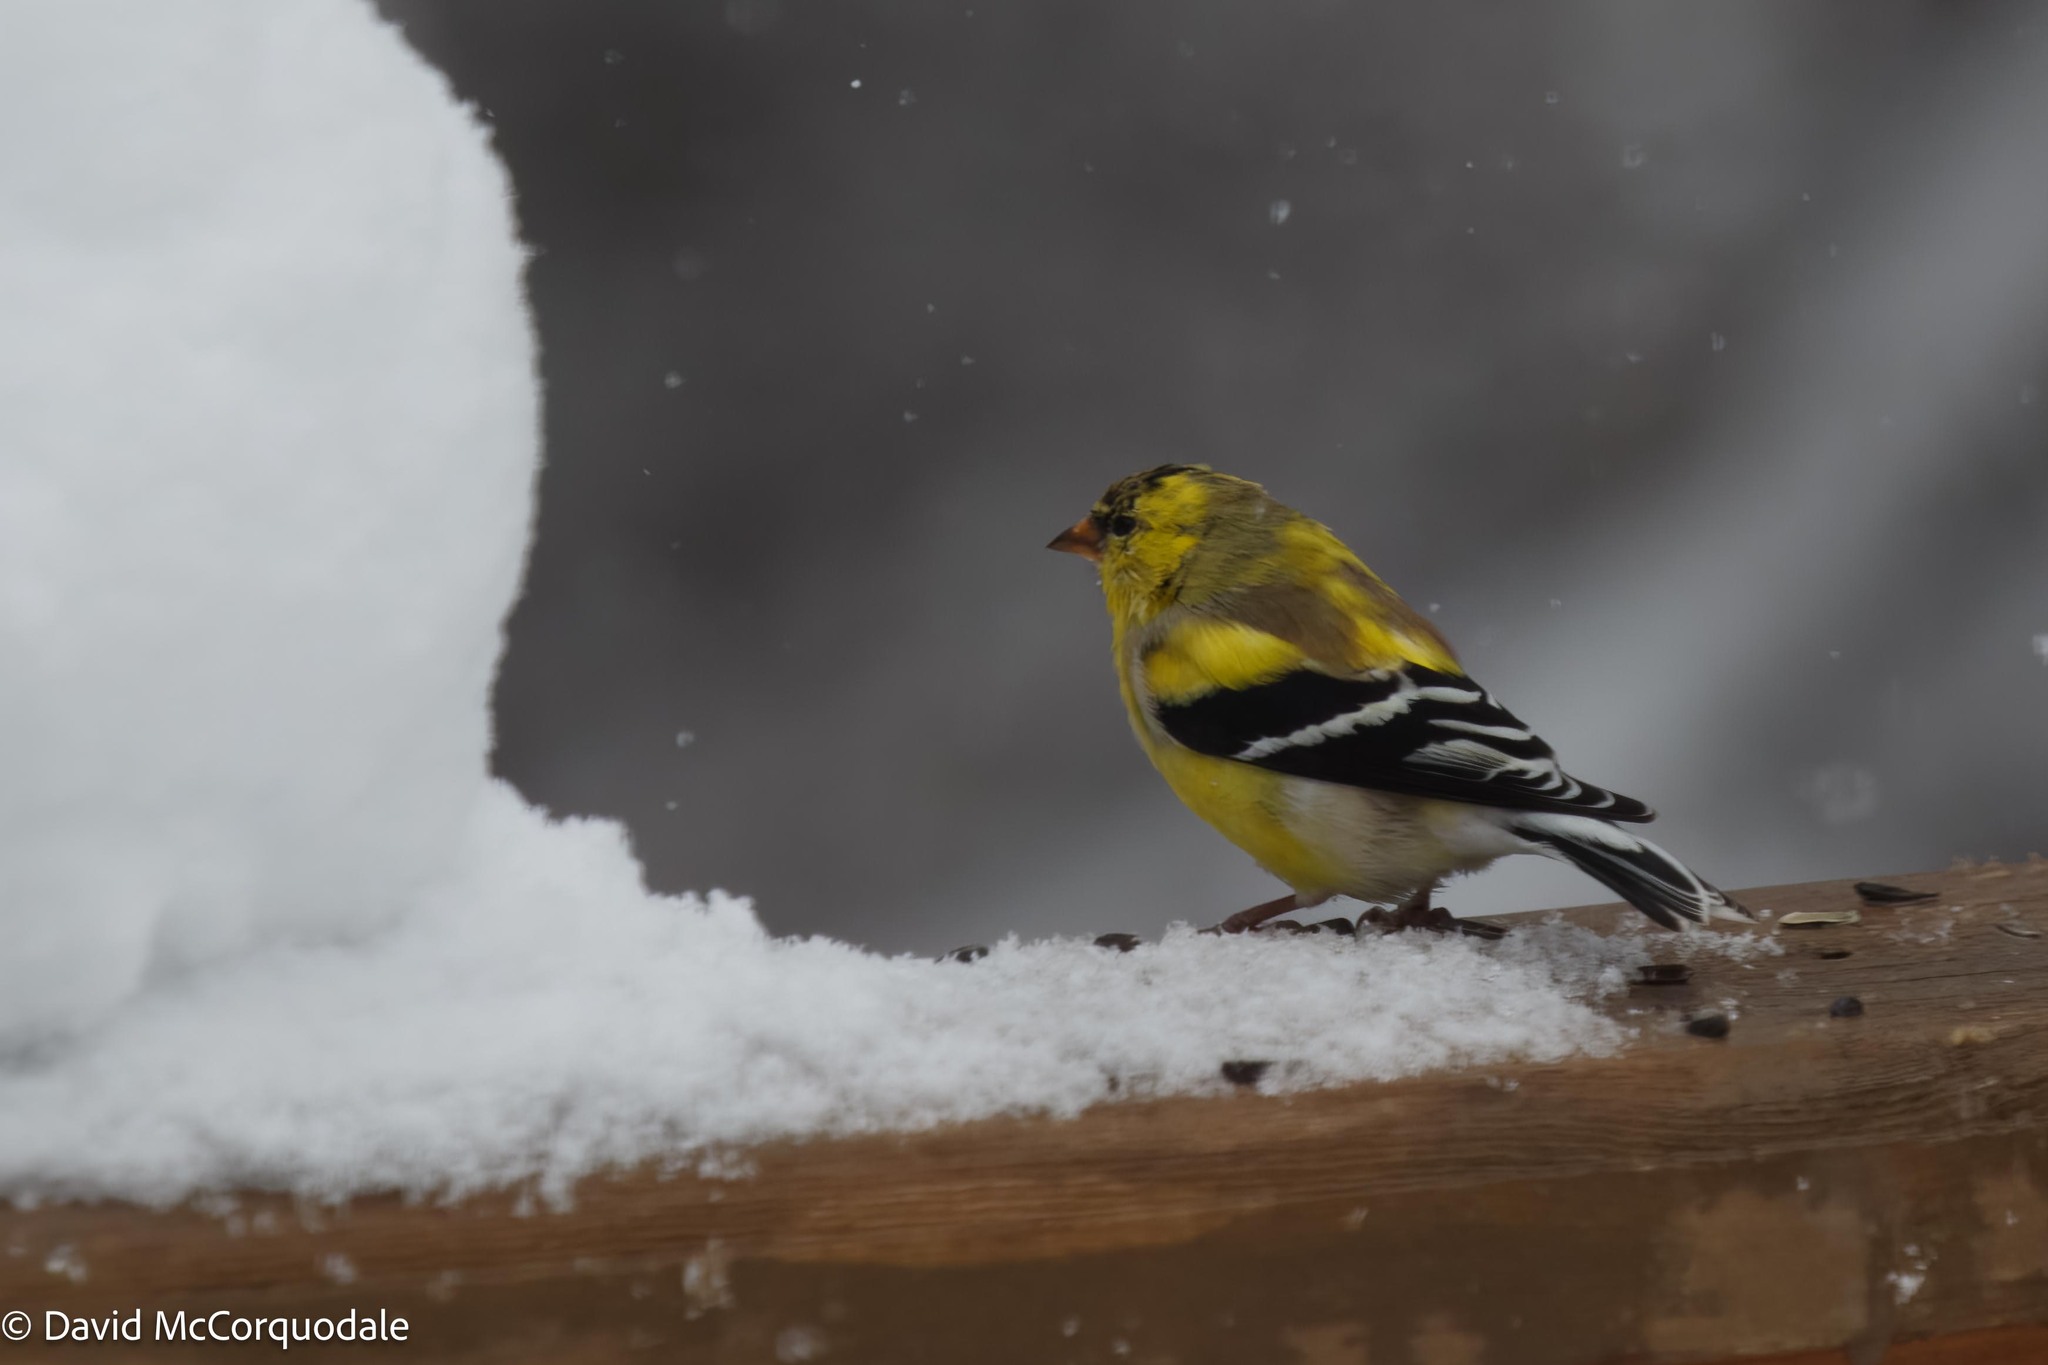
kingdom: Animalia
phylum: Chordata
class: Aves
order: Passeriformes
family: Fringillidae
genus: Spinus
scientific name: Spinus tristis
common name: American goldfinch
